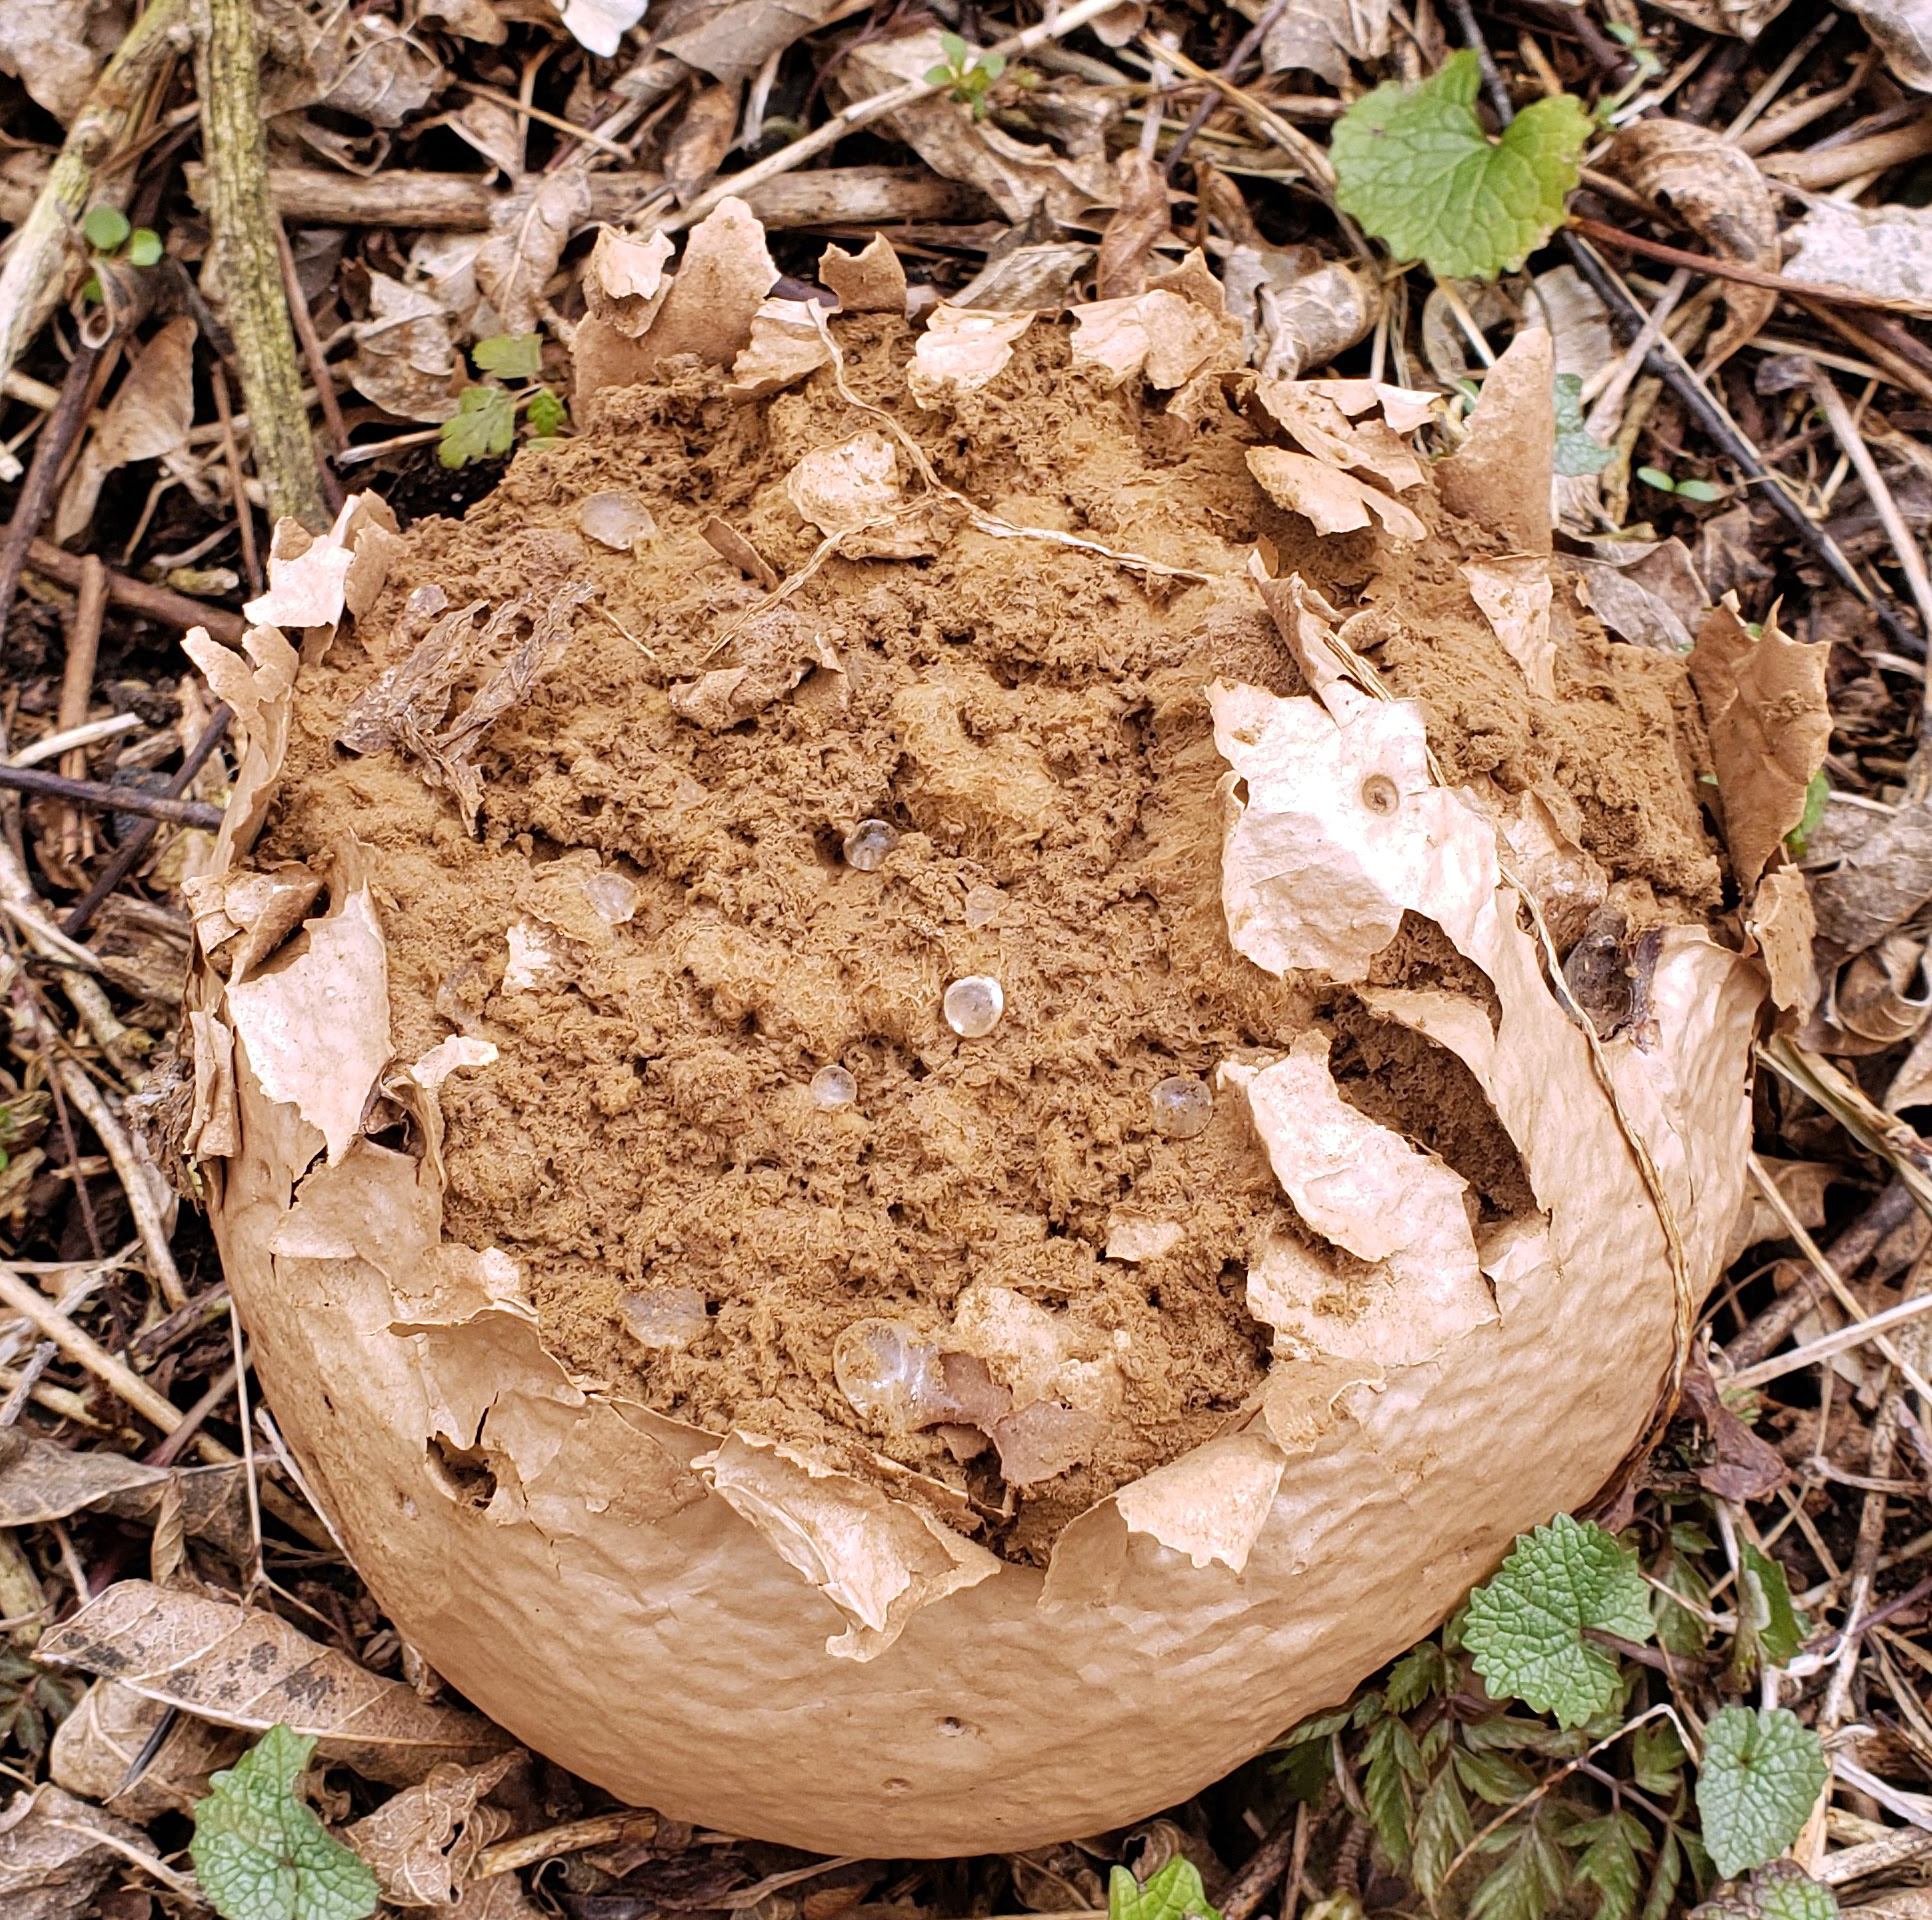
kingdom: Fungi
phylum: Basidiomycota
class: Agaricomycetes
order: Agaricales
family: Lycoperdaceae
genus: Calvatia
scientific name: Calvatia gigantea
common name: Giant puffball
